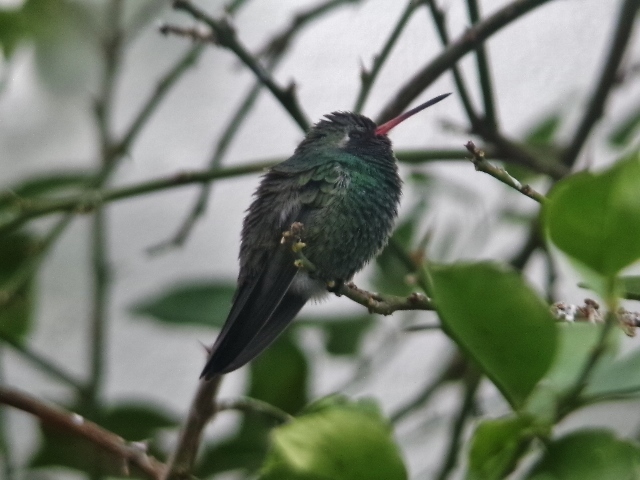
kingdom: Animalia
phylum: Chordata
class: Aves
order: Apodiformes
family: Trochilidae
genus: Cynanthus
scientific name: Cynanthus latirostris
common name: Broad-billed hummingbird
